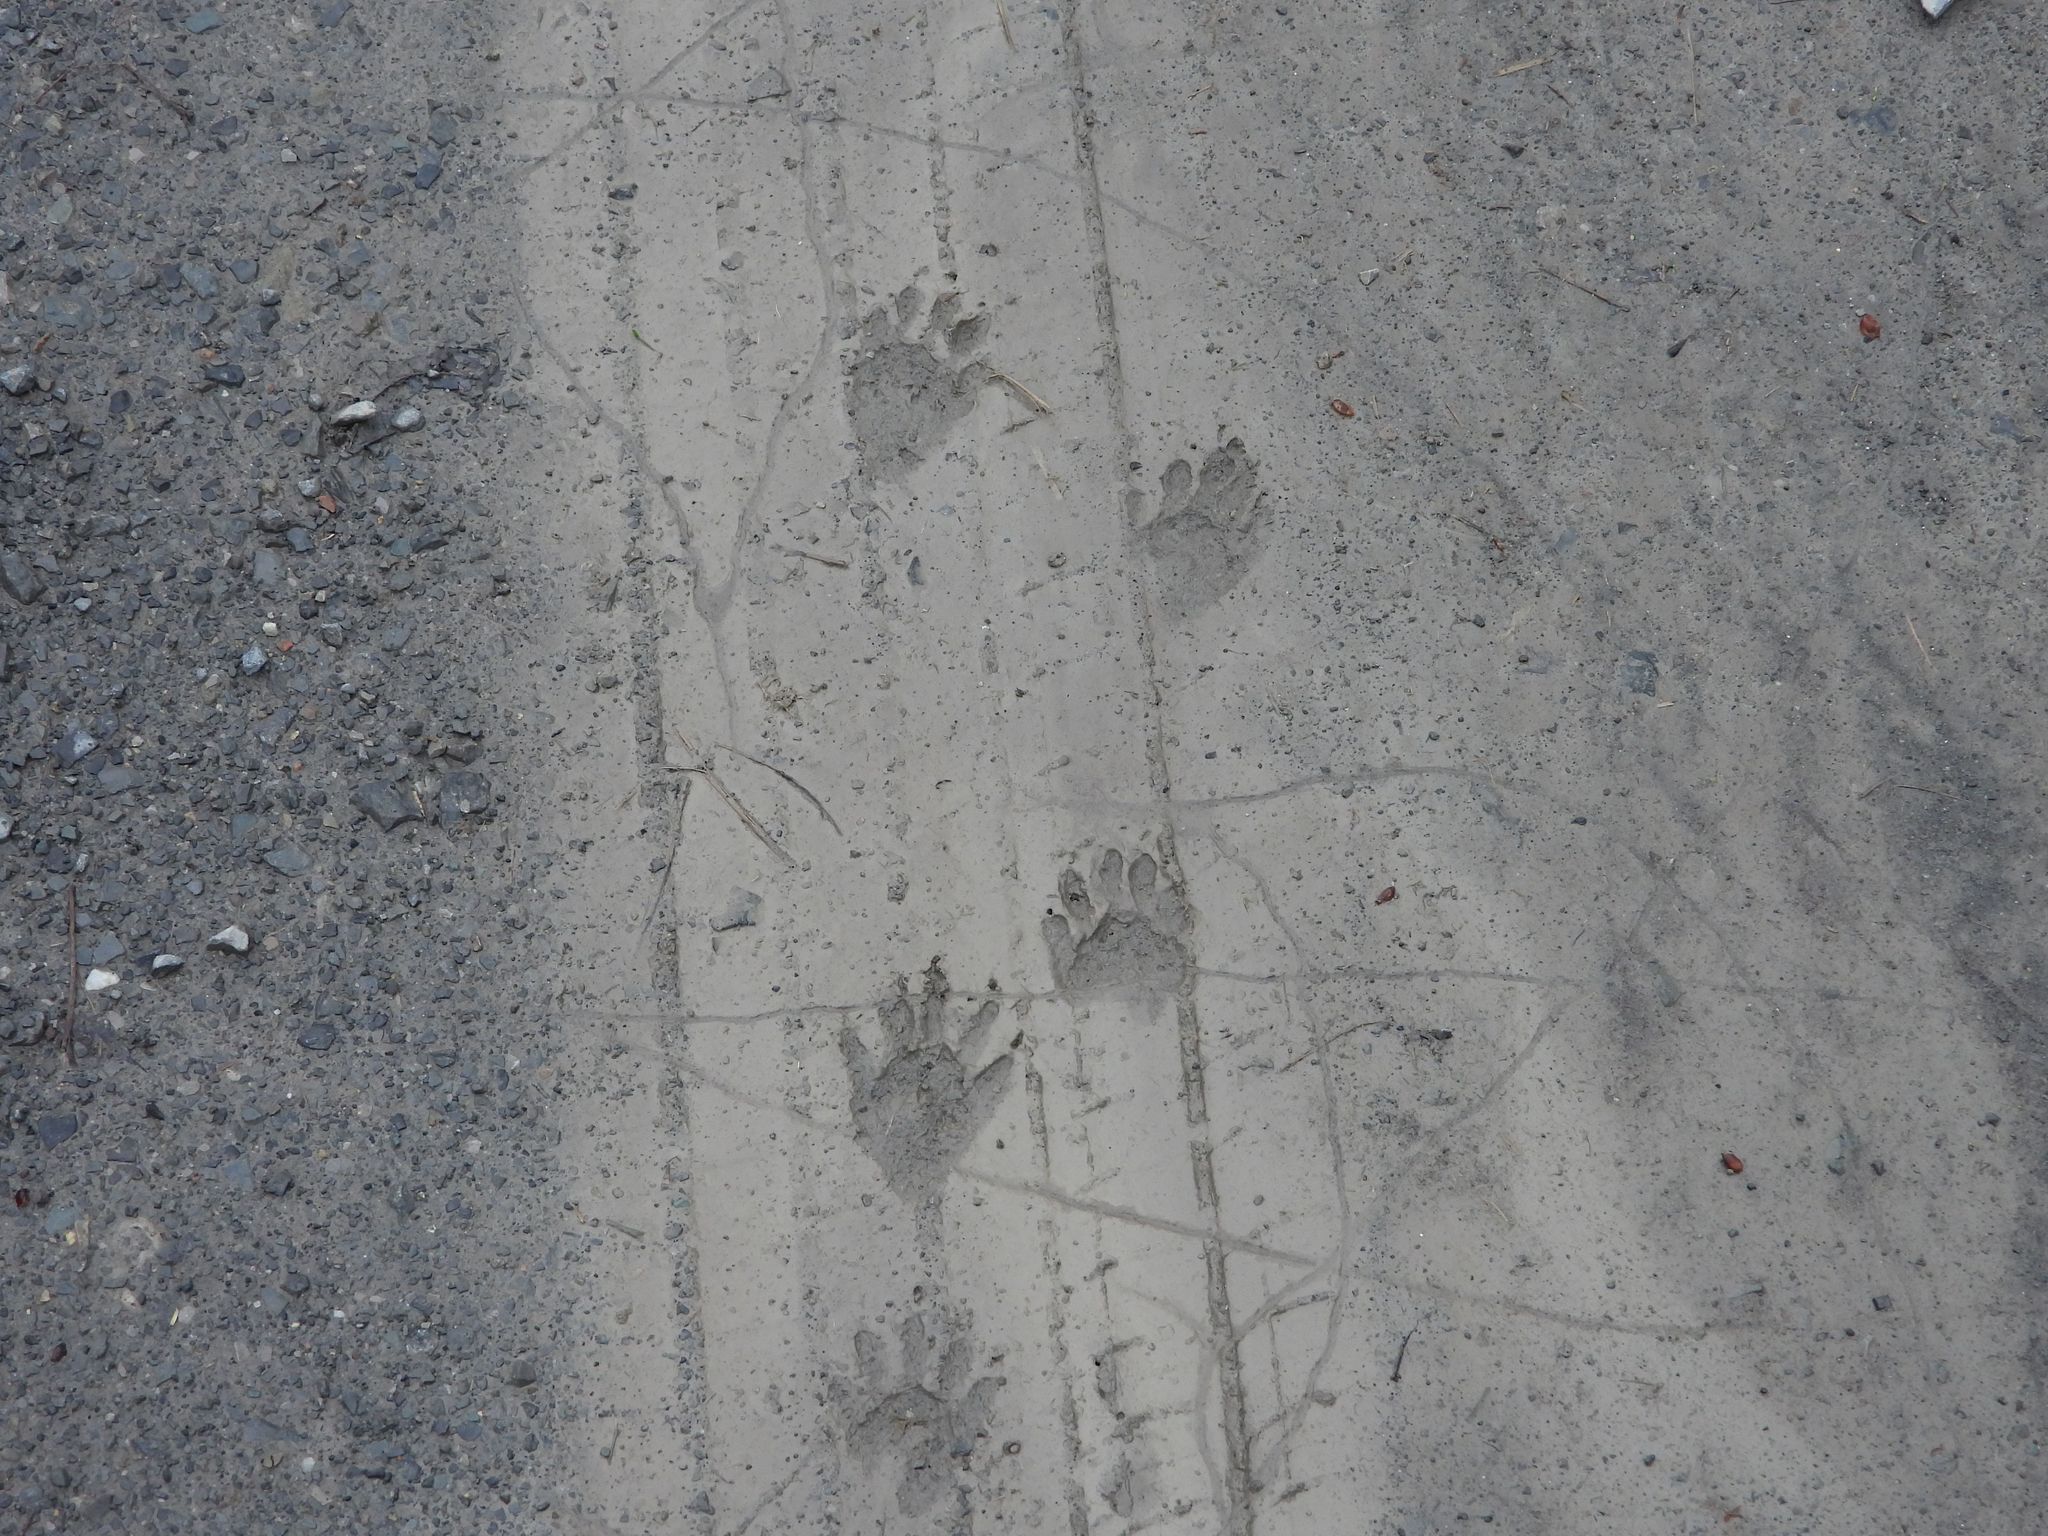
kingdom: Animalia
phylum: Chordata
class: Mammalia
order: Carnivora
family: Procyonidae
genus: Procyon
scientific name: Procyon lotor
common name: Raccoon
